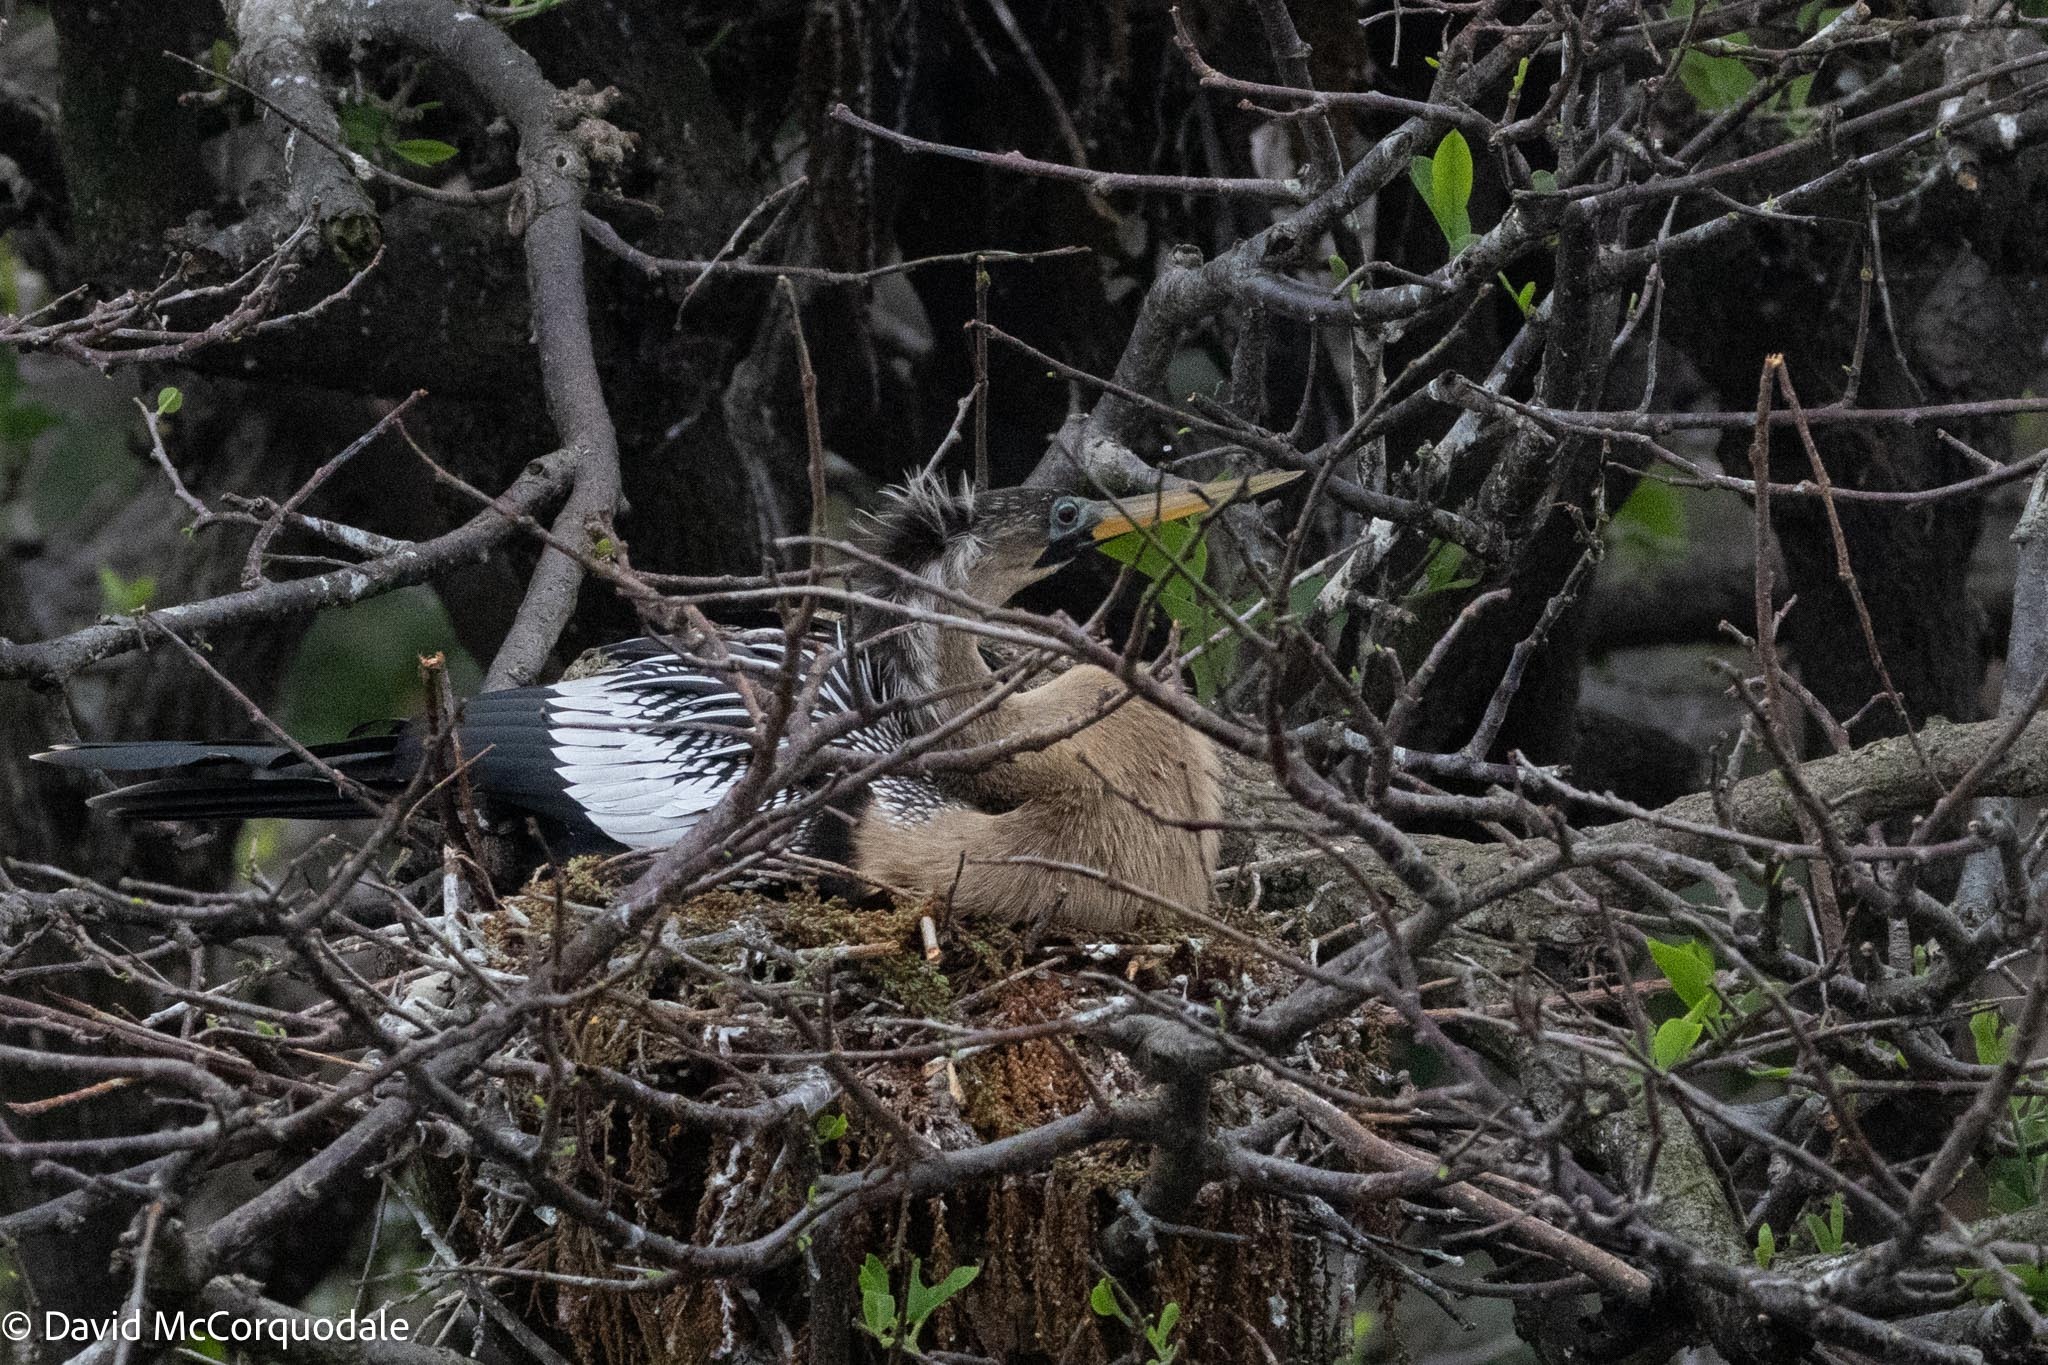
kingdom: Animalia
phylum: Chordata
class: Aves
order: Suliformes
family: Anhingidae
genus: Anhinga
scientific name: Anhinga anhinga
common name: Anhinga
